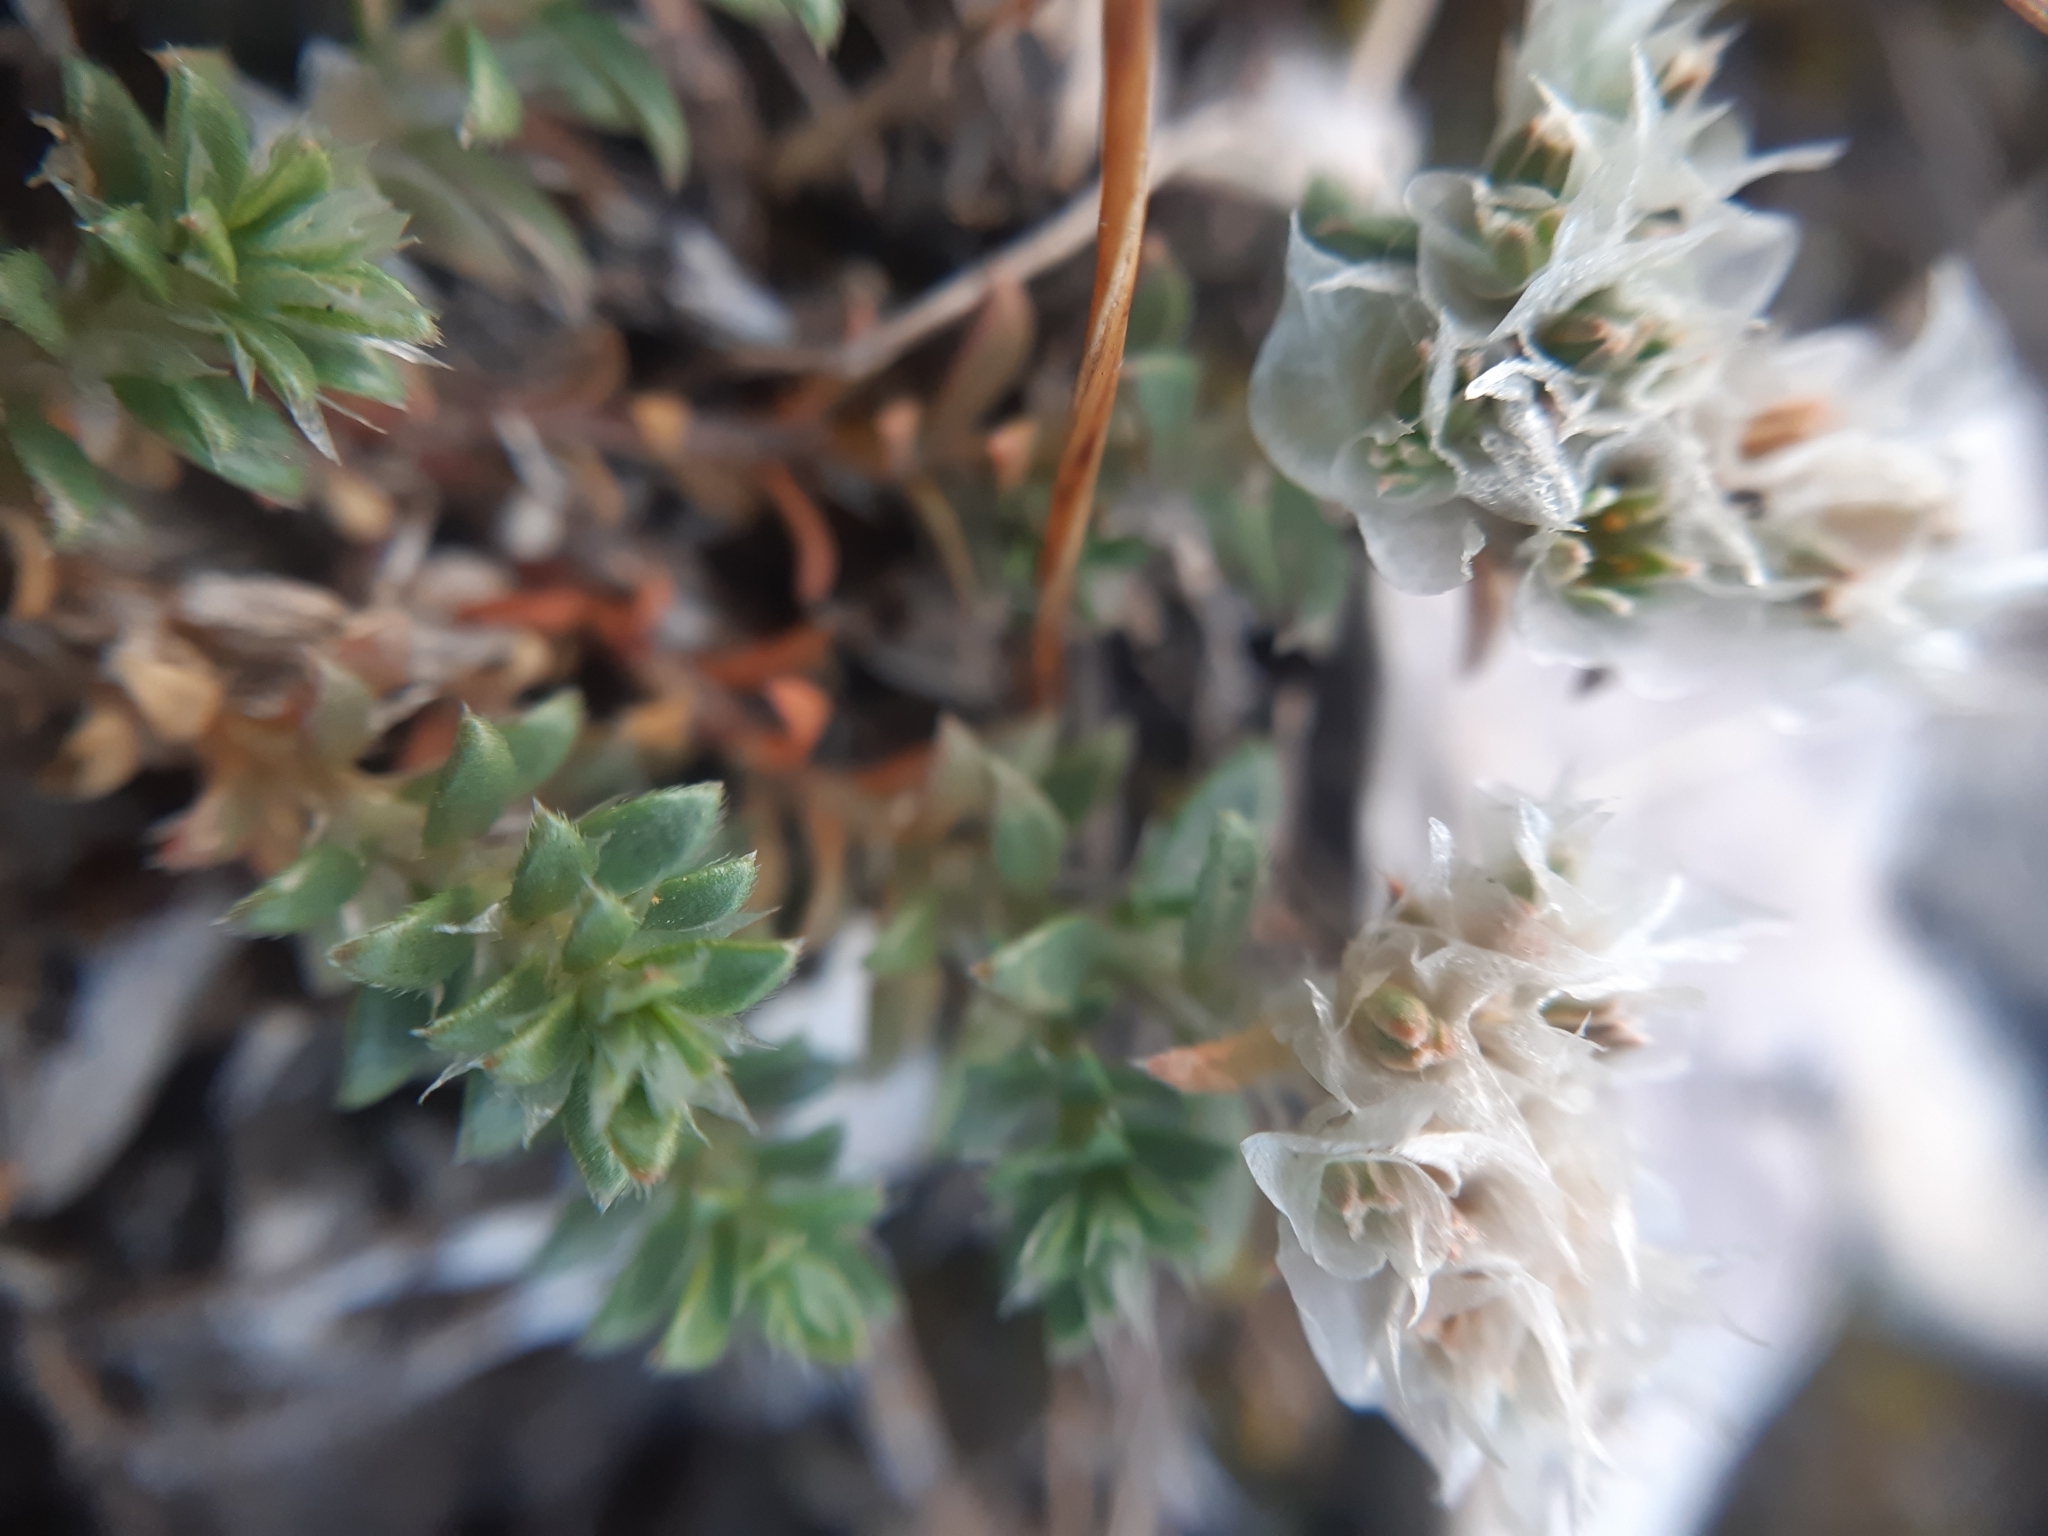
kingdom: Plantae
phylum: Tracheophyta
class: Magnoliopsida
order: Caryophyllales
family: Caryophyllaceae
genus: Paronychia
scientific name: Paronychia cephalotes
